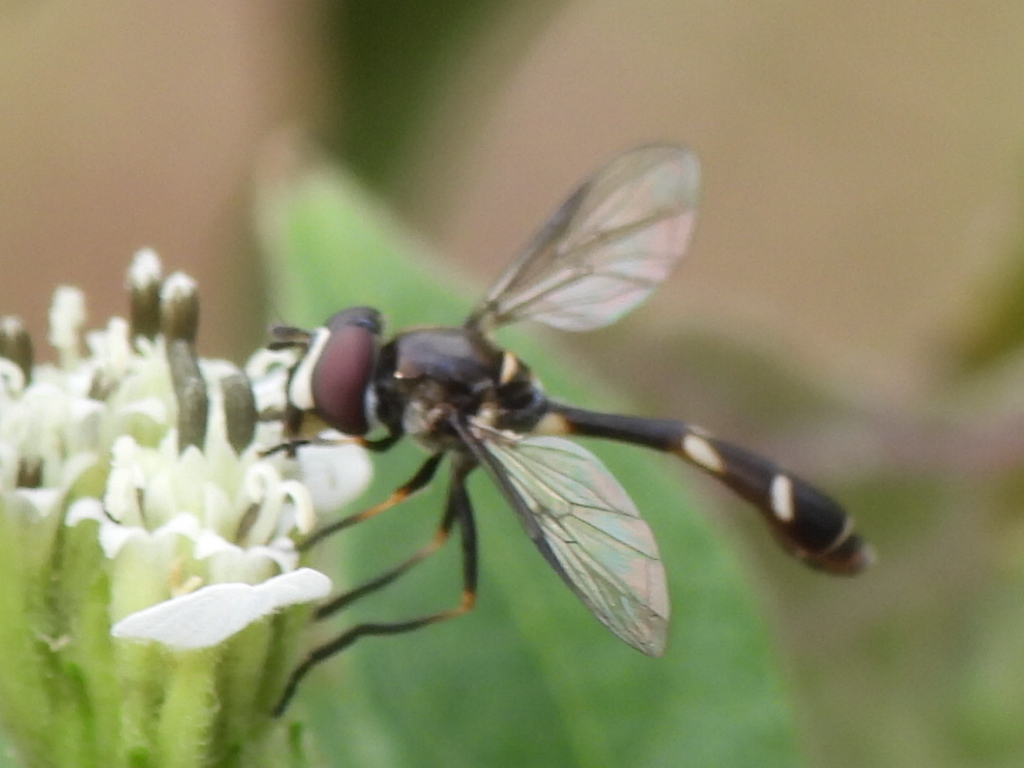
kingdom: Animalia
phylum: Arthropoda
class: Insecta
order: Diptera
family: Syrphidae
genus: Dioprosopa
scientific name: Dioprosopa clavatus
